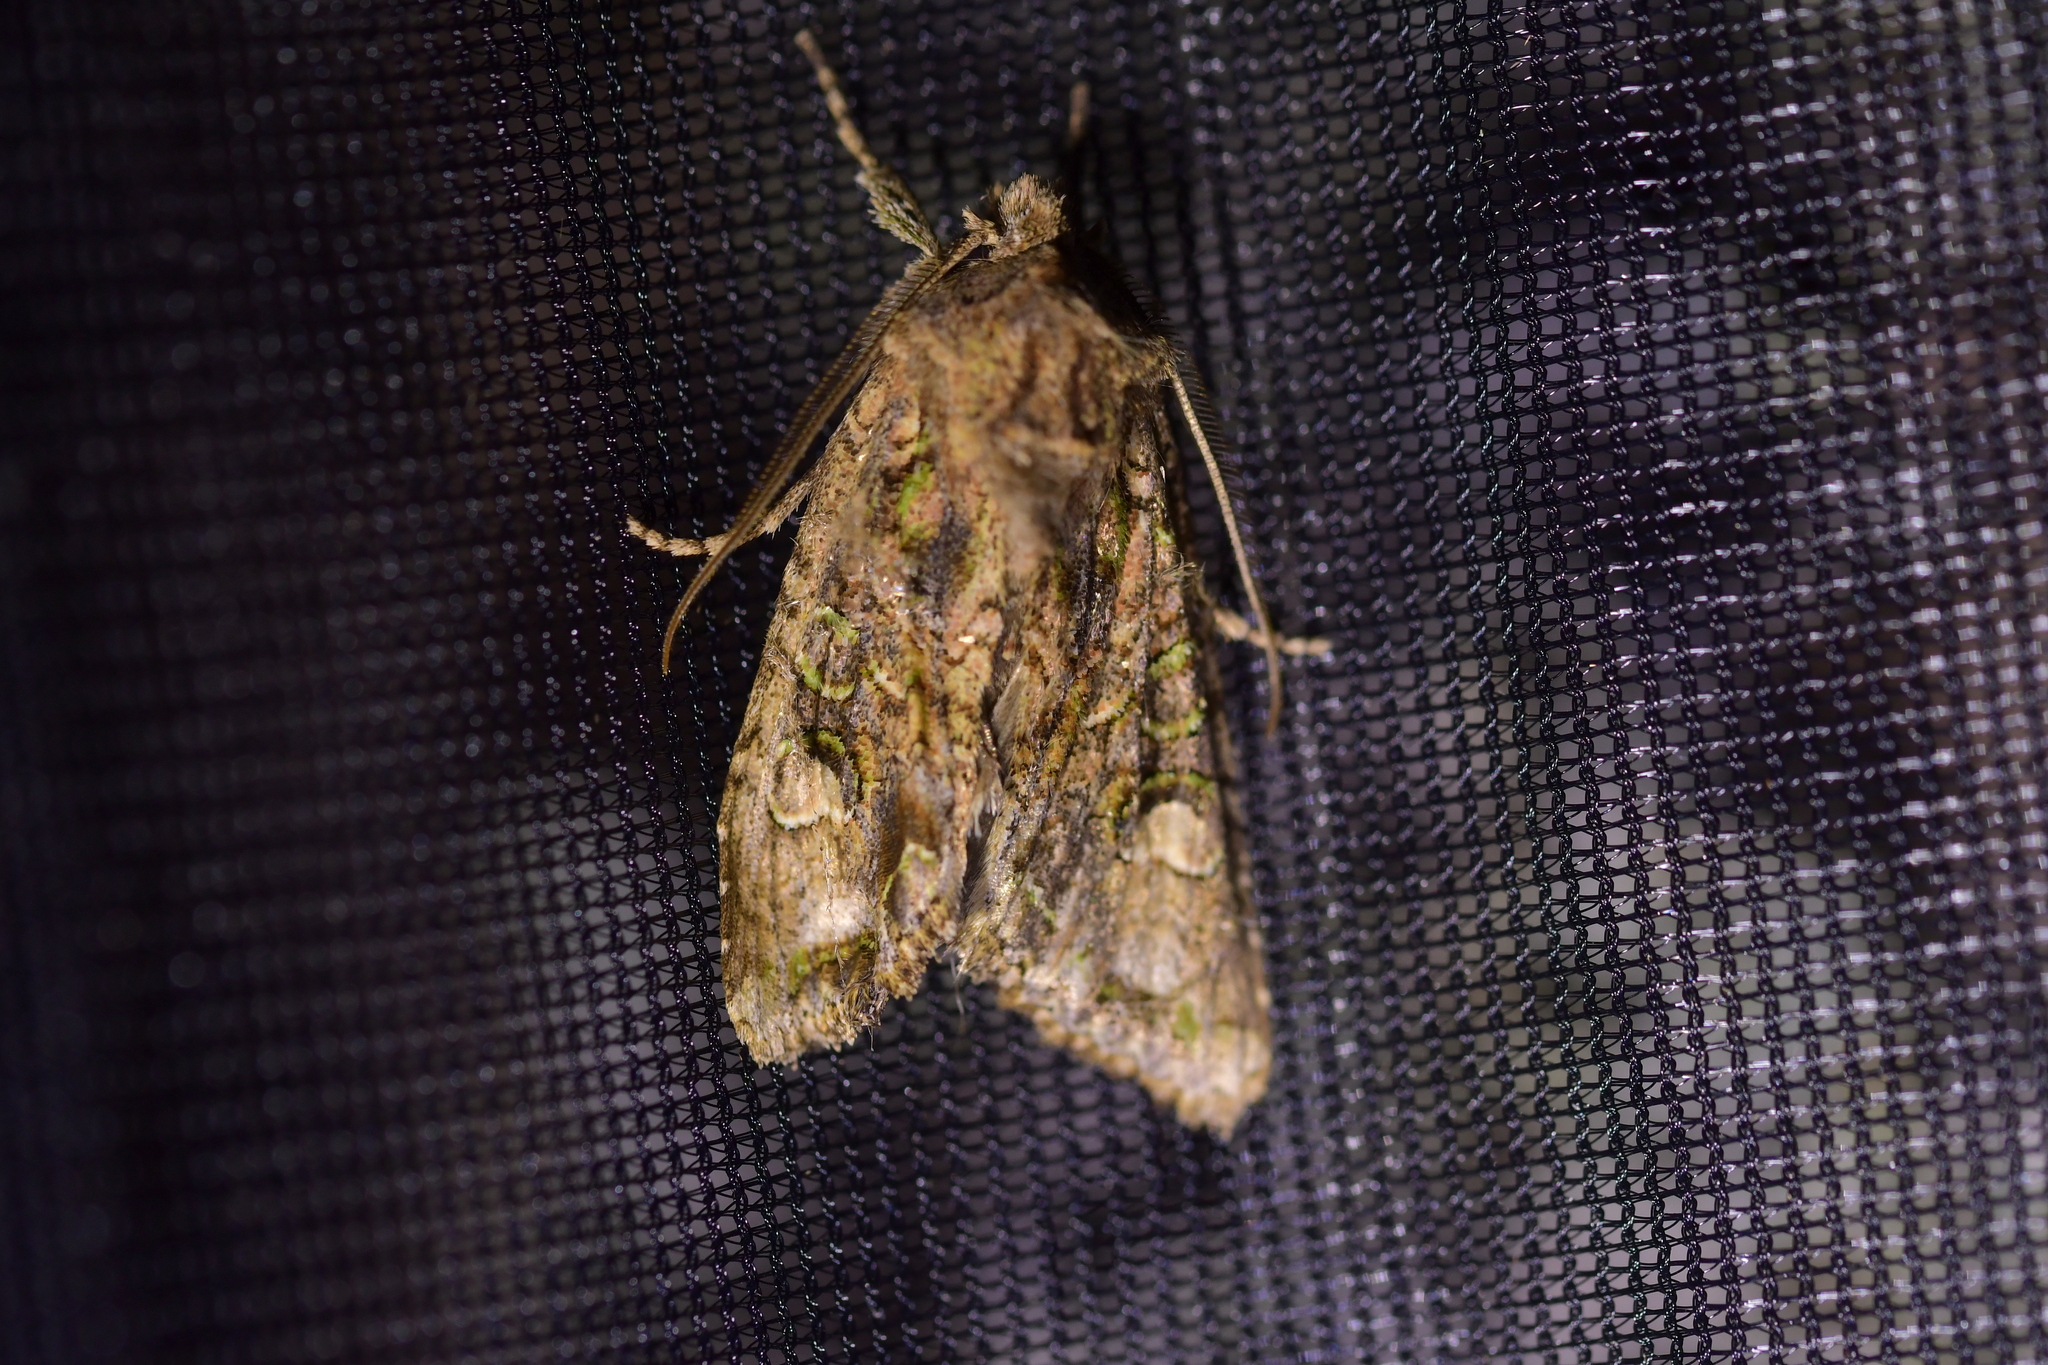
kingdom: Animalia
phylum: Arthropoda
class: Insecta
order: Lepidoptera
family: Noctuidae
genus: Ichneutica
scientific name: Ichneutica insignis
